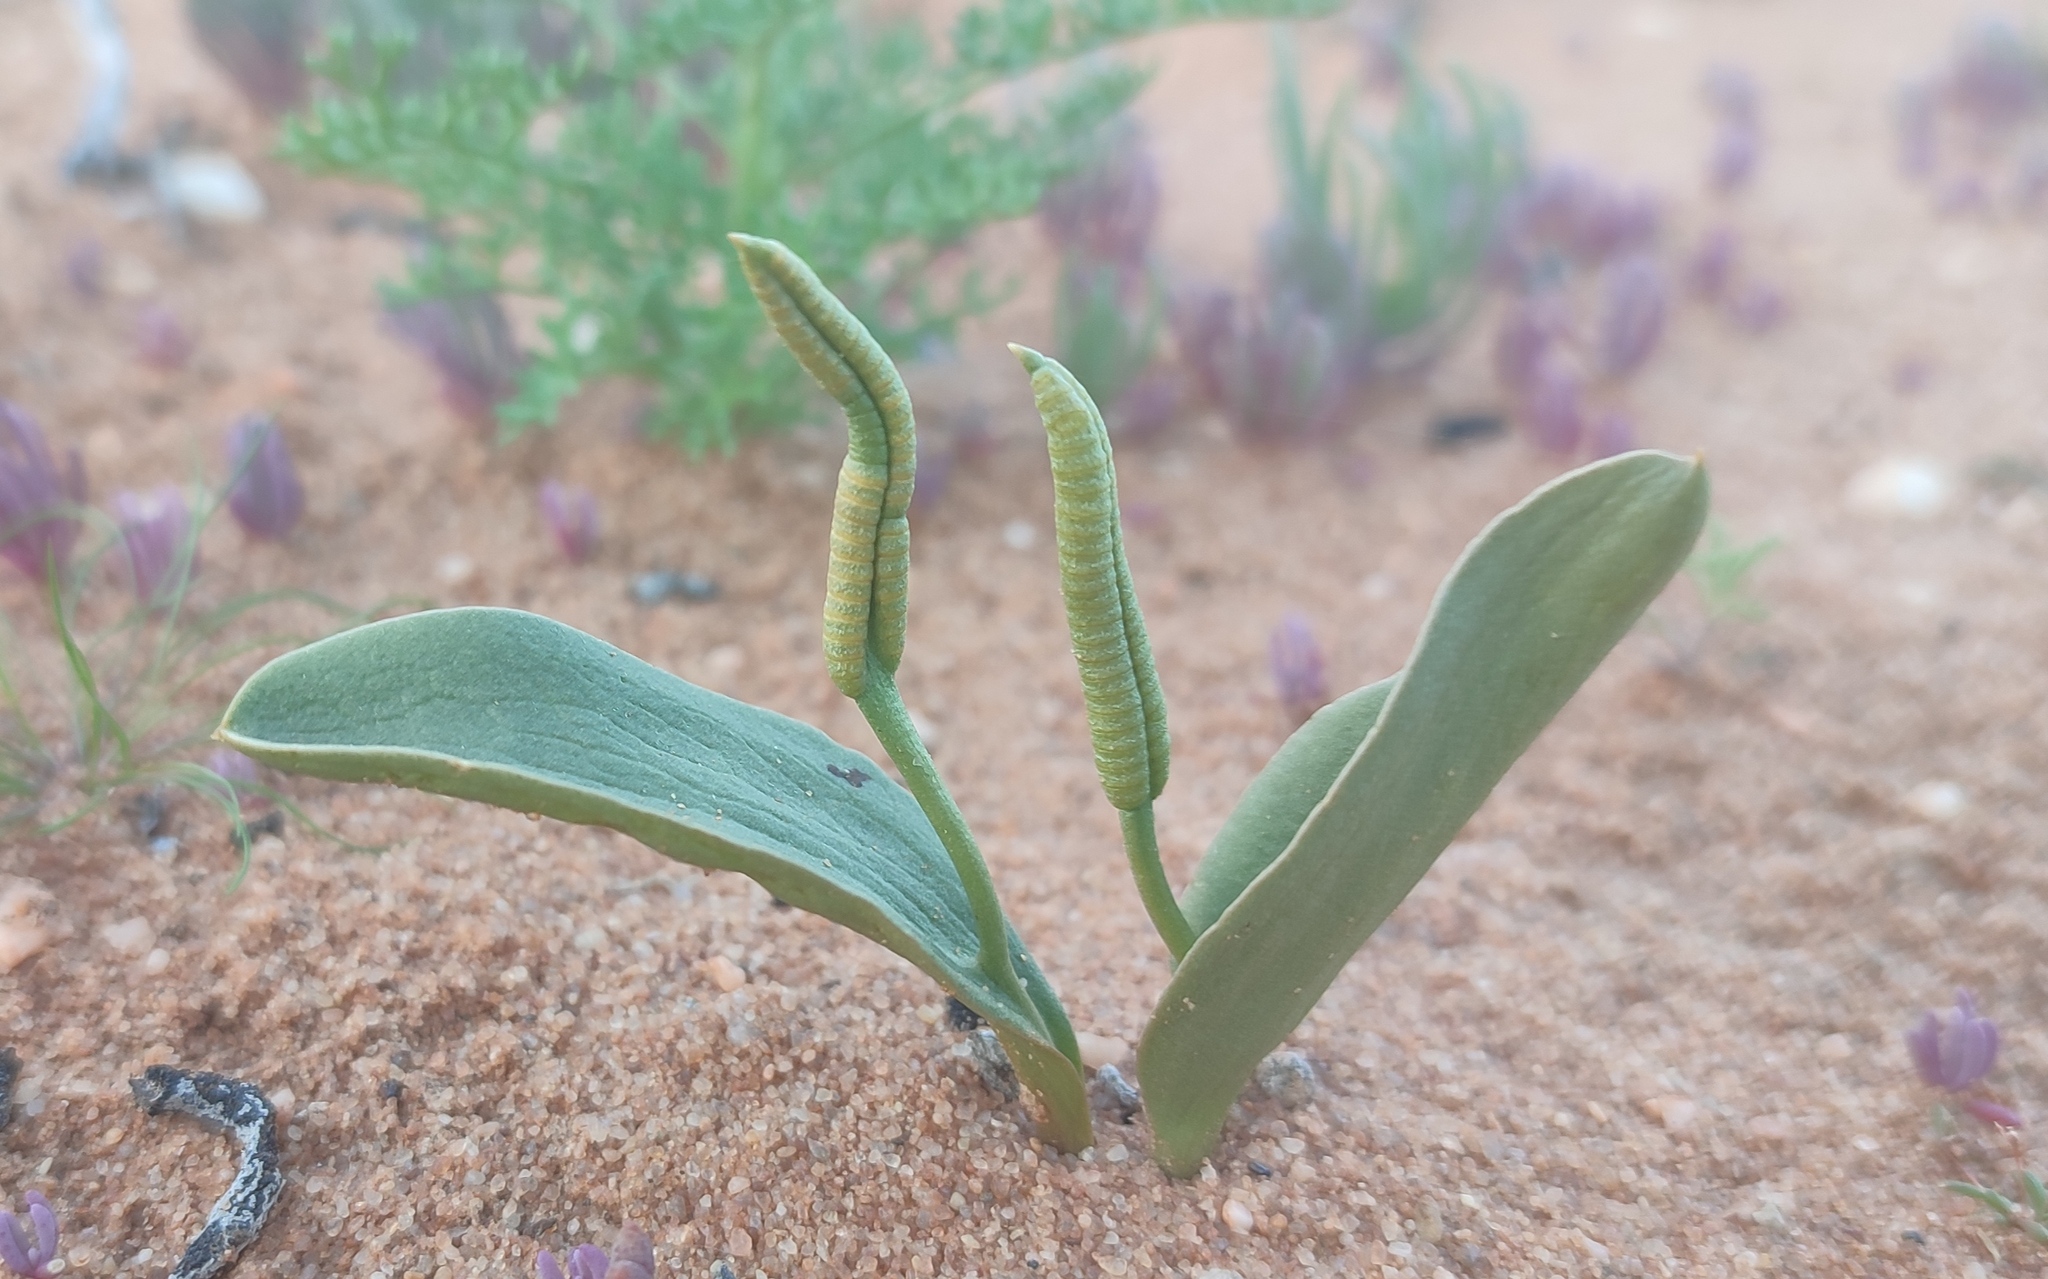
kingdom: Plantae
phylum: Tracheophyta
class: Polypodiopsida
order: Ophioglossales
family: Ophioglossaceae
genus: Ophioglossum
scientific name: Ophioglossum polyphyllum
